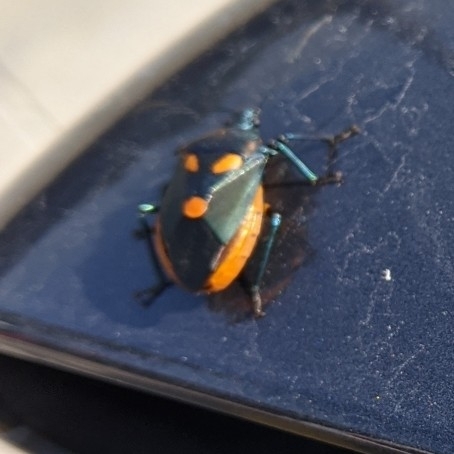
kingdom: Animalia
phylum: Arthropoda
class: Insecta
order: Hemiptera
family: Pentatomidae
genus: Euthyrhynchus
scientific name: Euthyrhynchus floridanus
